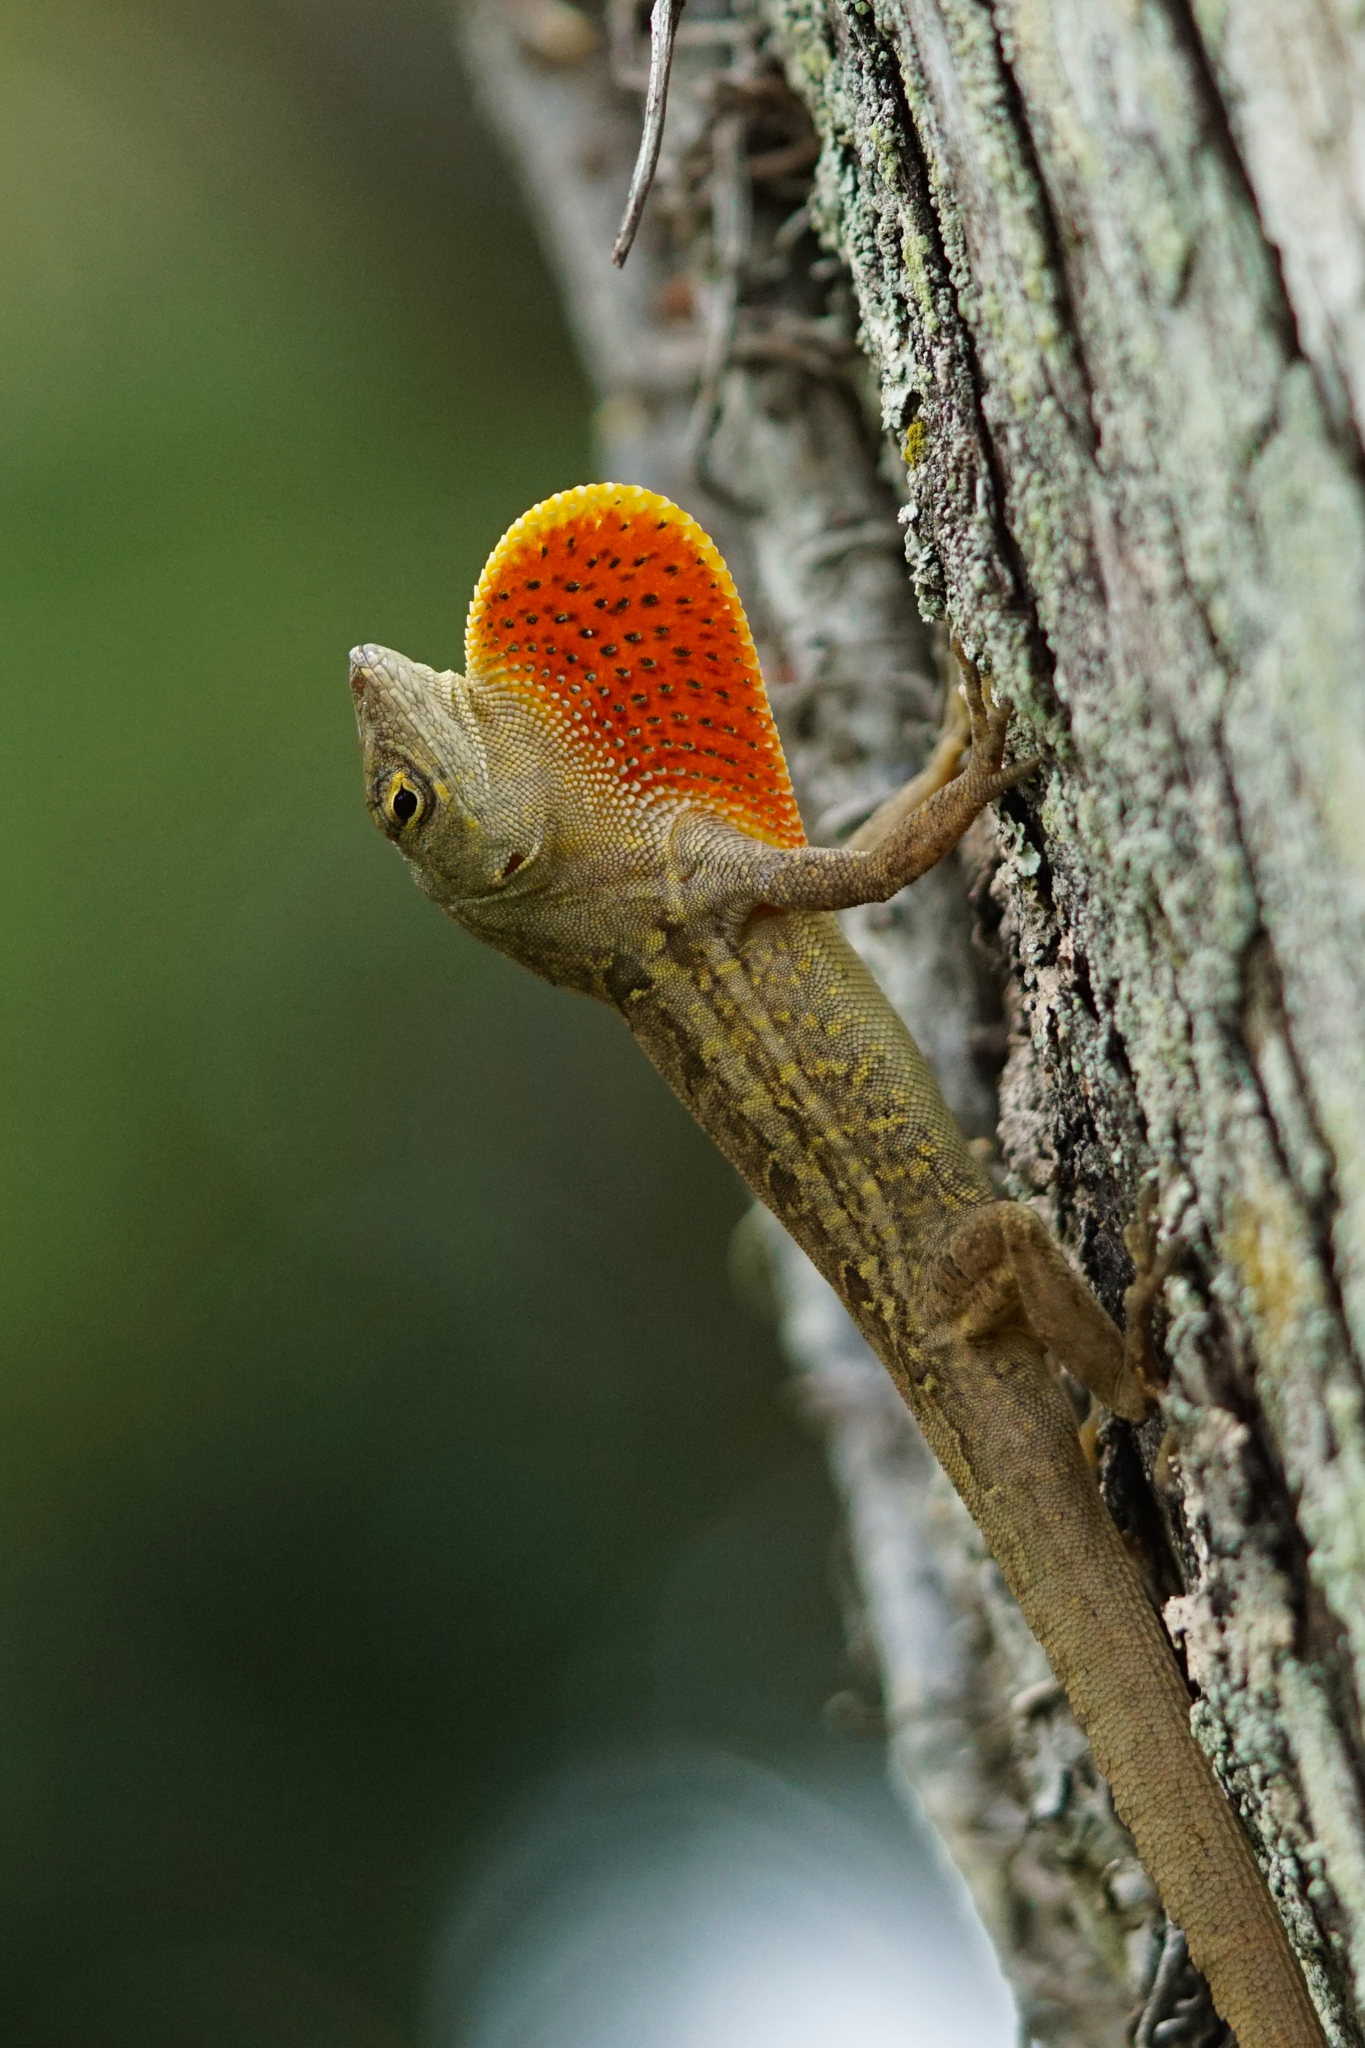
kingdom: Animalia
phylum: Chordata
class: Squamata
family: Dactyloidae
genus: Anolis
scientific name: Anolis sagrei
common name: Brown anole
